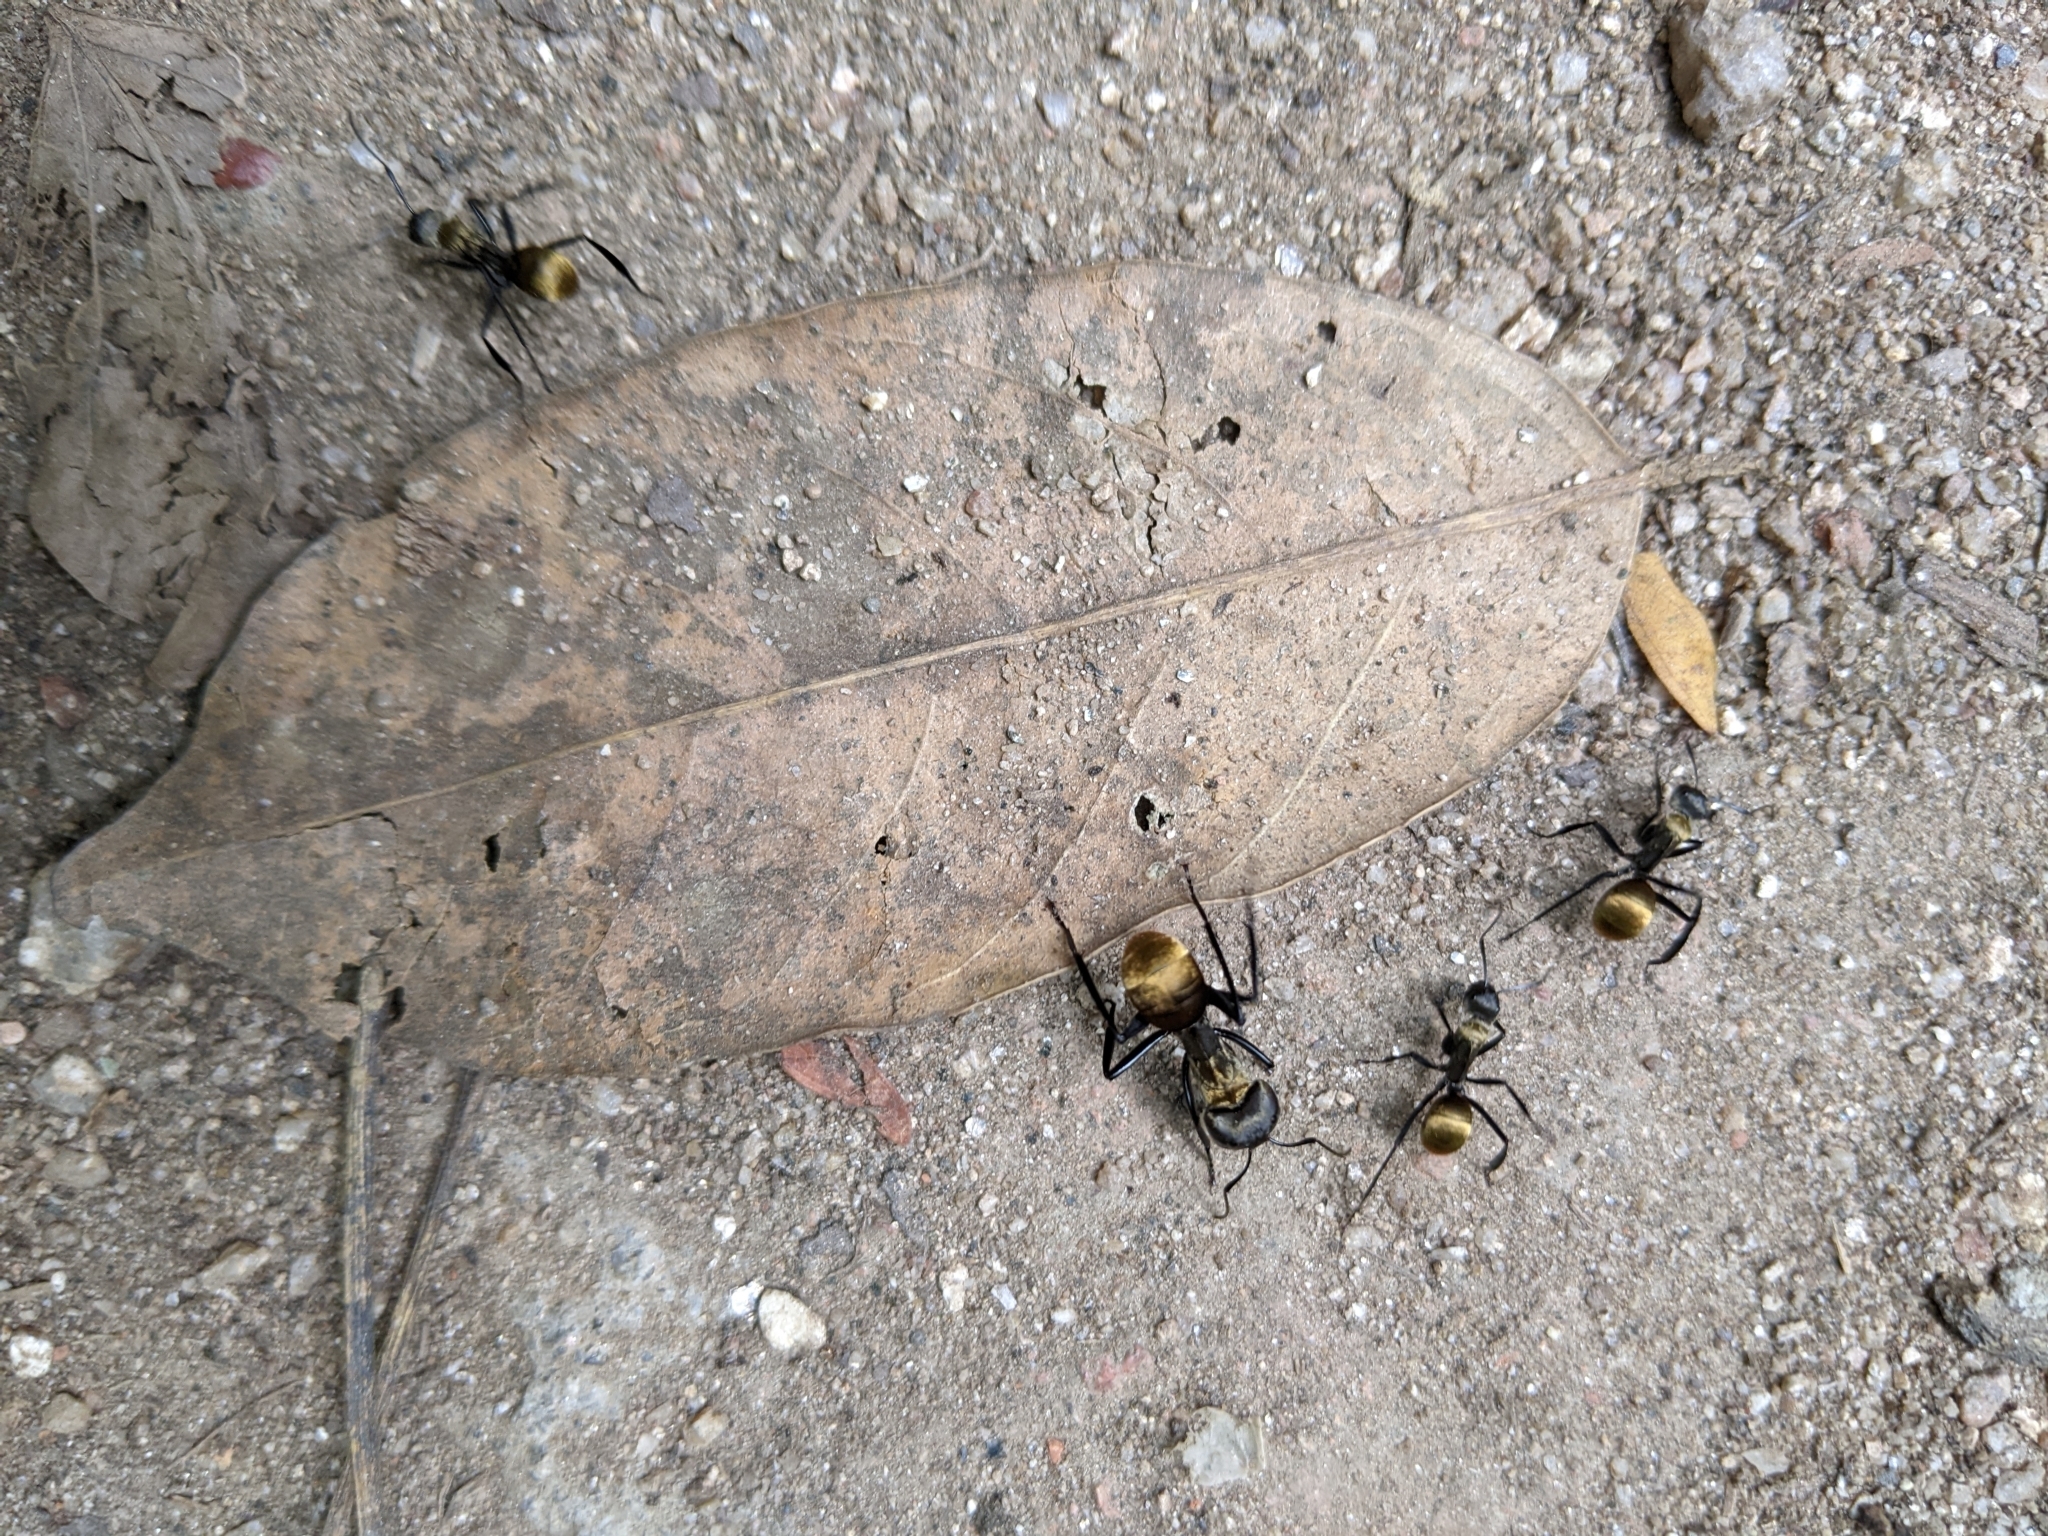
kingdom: Animalia
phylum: Arthropoda
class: Insecta
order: Hymenoptera
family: Formicidae
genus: Camponotus
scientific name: Camponotus sericeiventris
